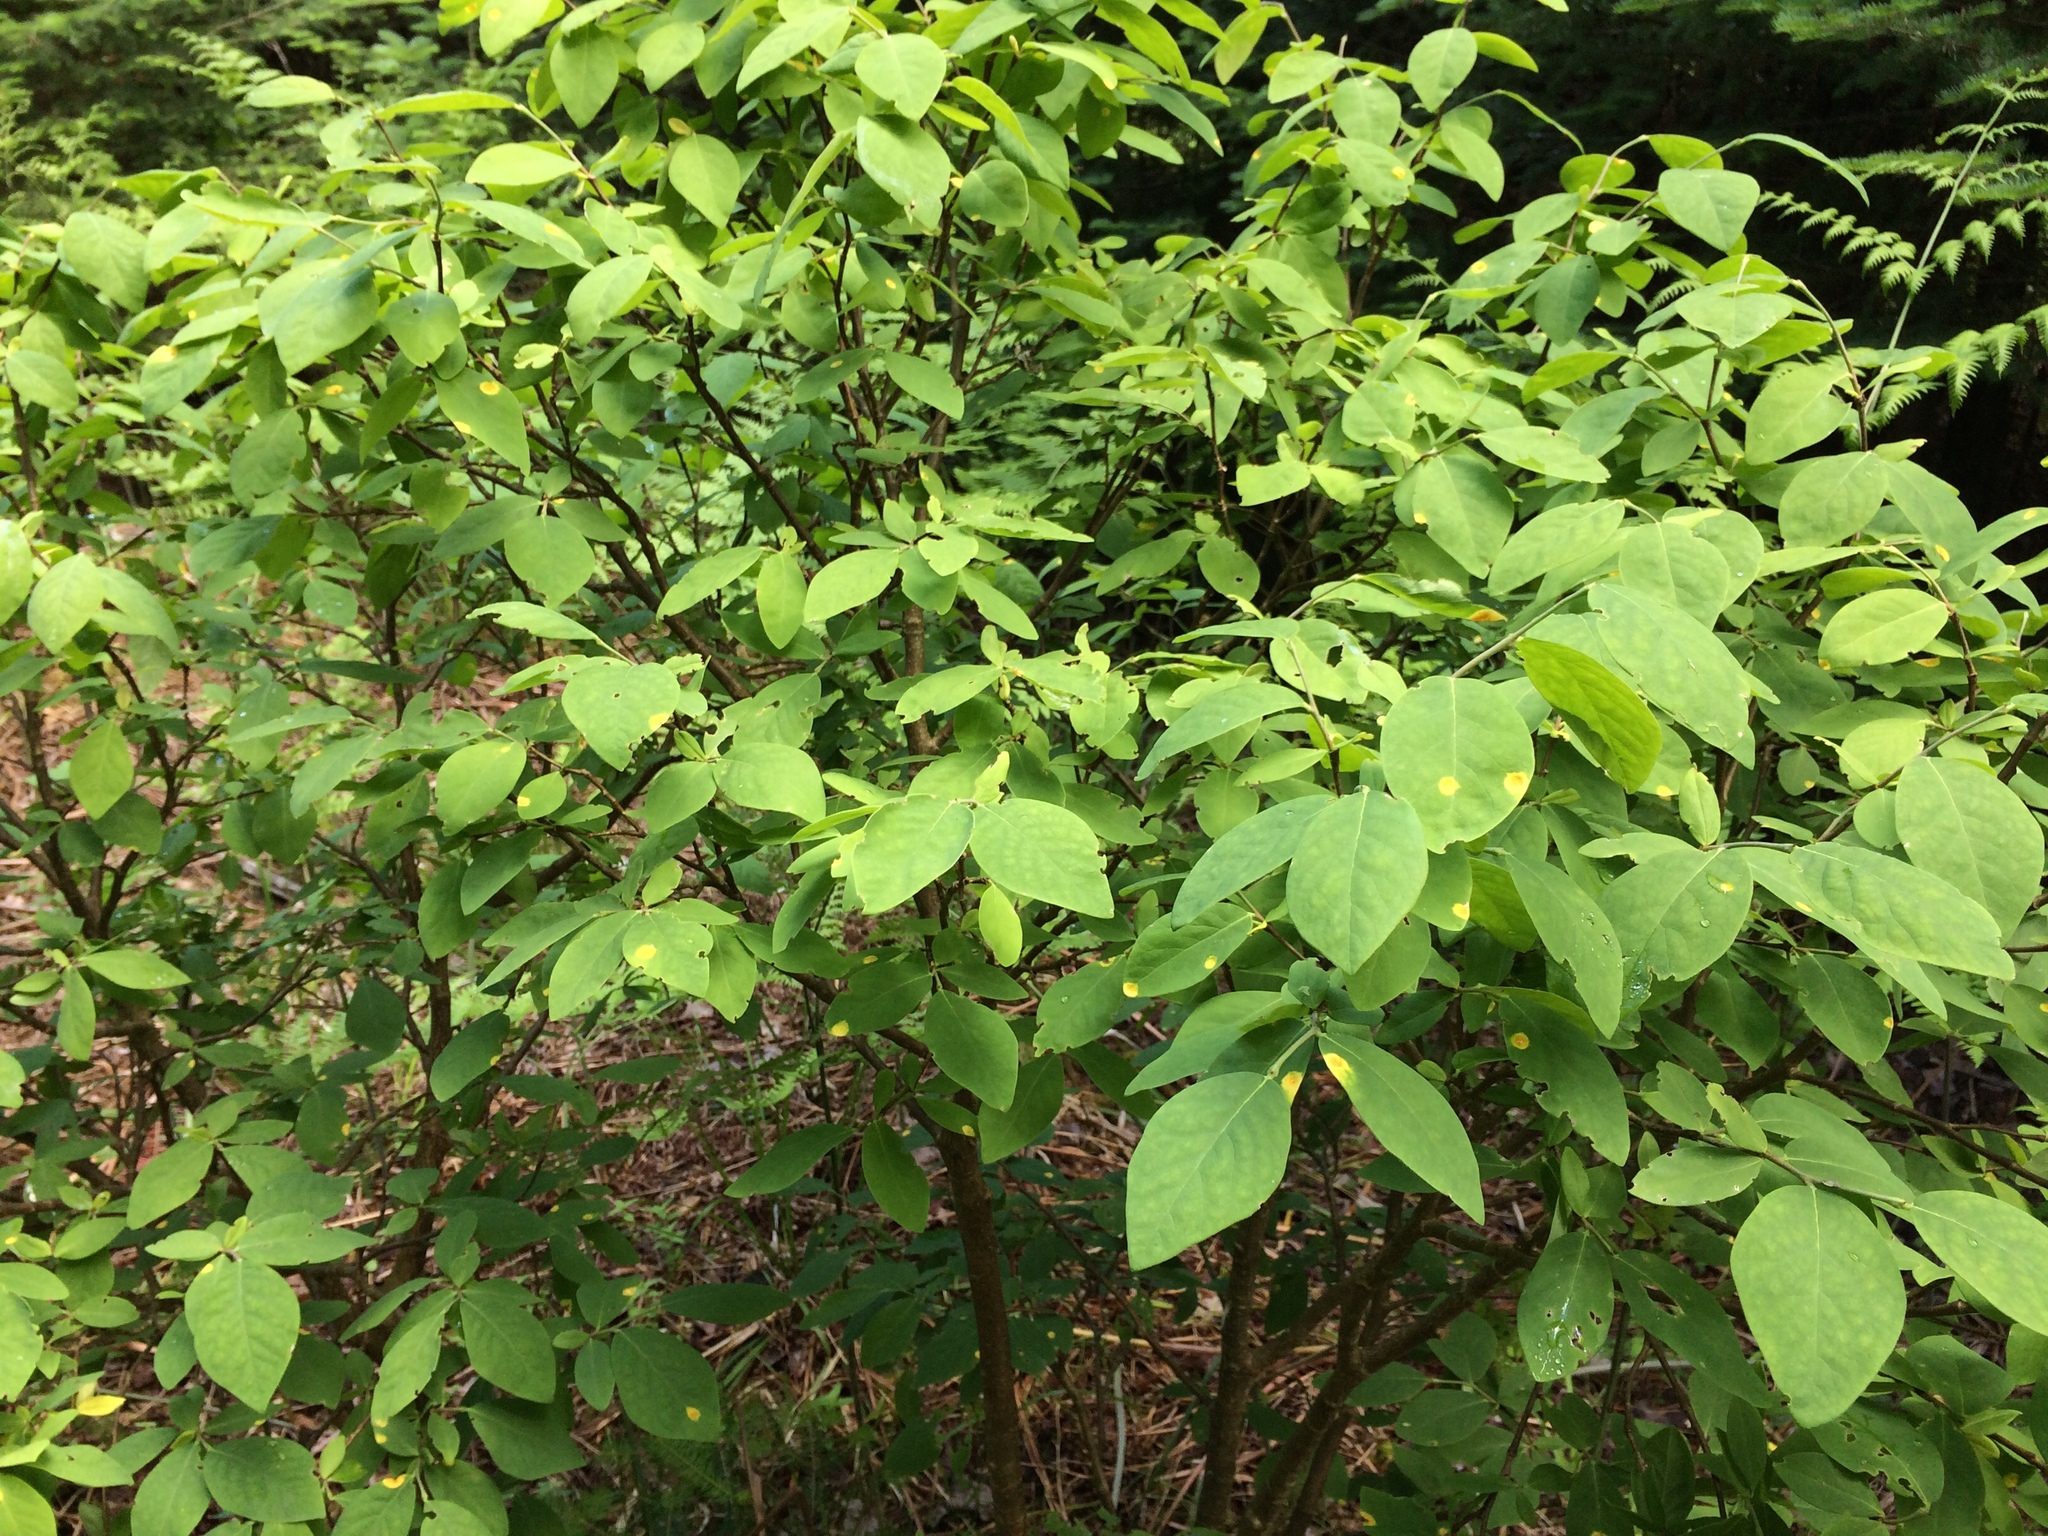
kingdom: Plantae
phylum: Tracheophyta
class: Magnoliopsida
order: Malvales
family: Thymelaeaceae
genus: Dirca
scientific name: Dirca palustris
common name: Leatherwood
